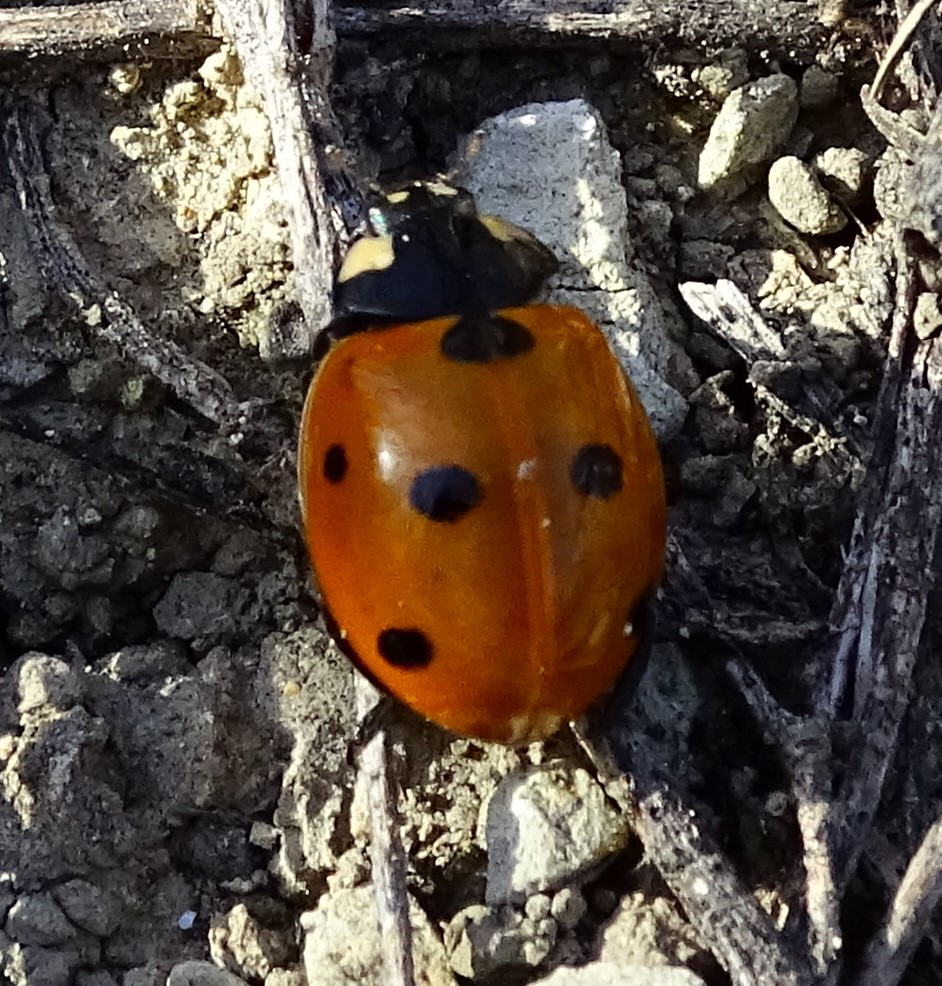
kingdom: Animalia
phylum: Arthropoda
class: Insecta
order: Coleoptera
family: Coccinellidae
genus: Coccinella
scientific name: Coccinella septempunctata
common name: Sevenspotted lady beetle
